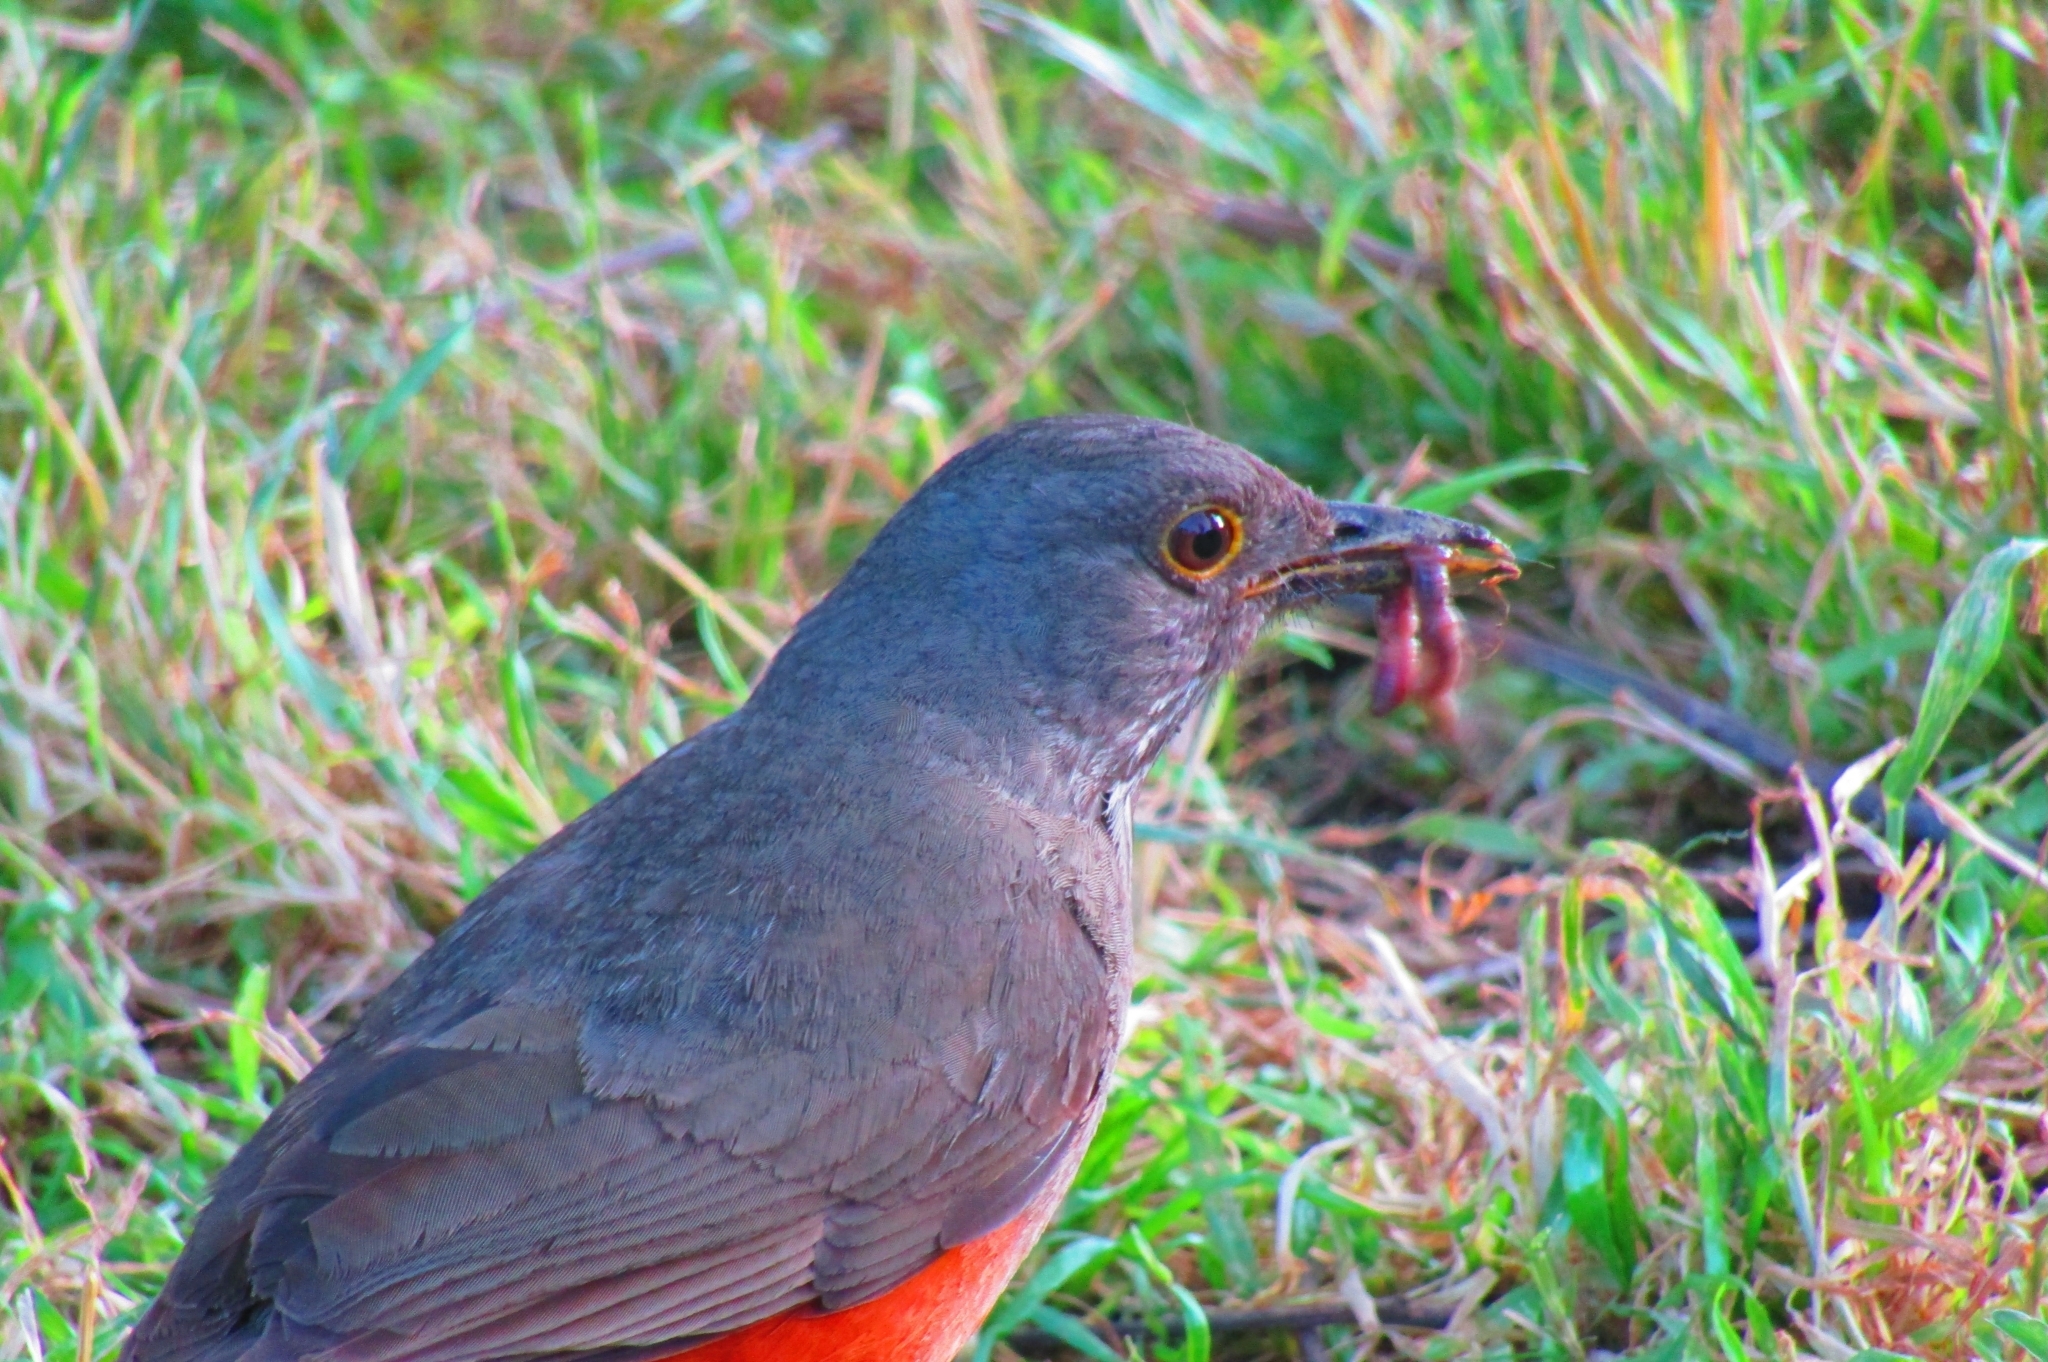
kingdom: Animalia
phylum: Chordata
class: Aves
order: Passeriformes
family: Turdidae
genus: Turdus
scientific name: Turdus rufiventris
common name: Rufous-bellied thrush
